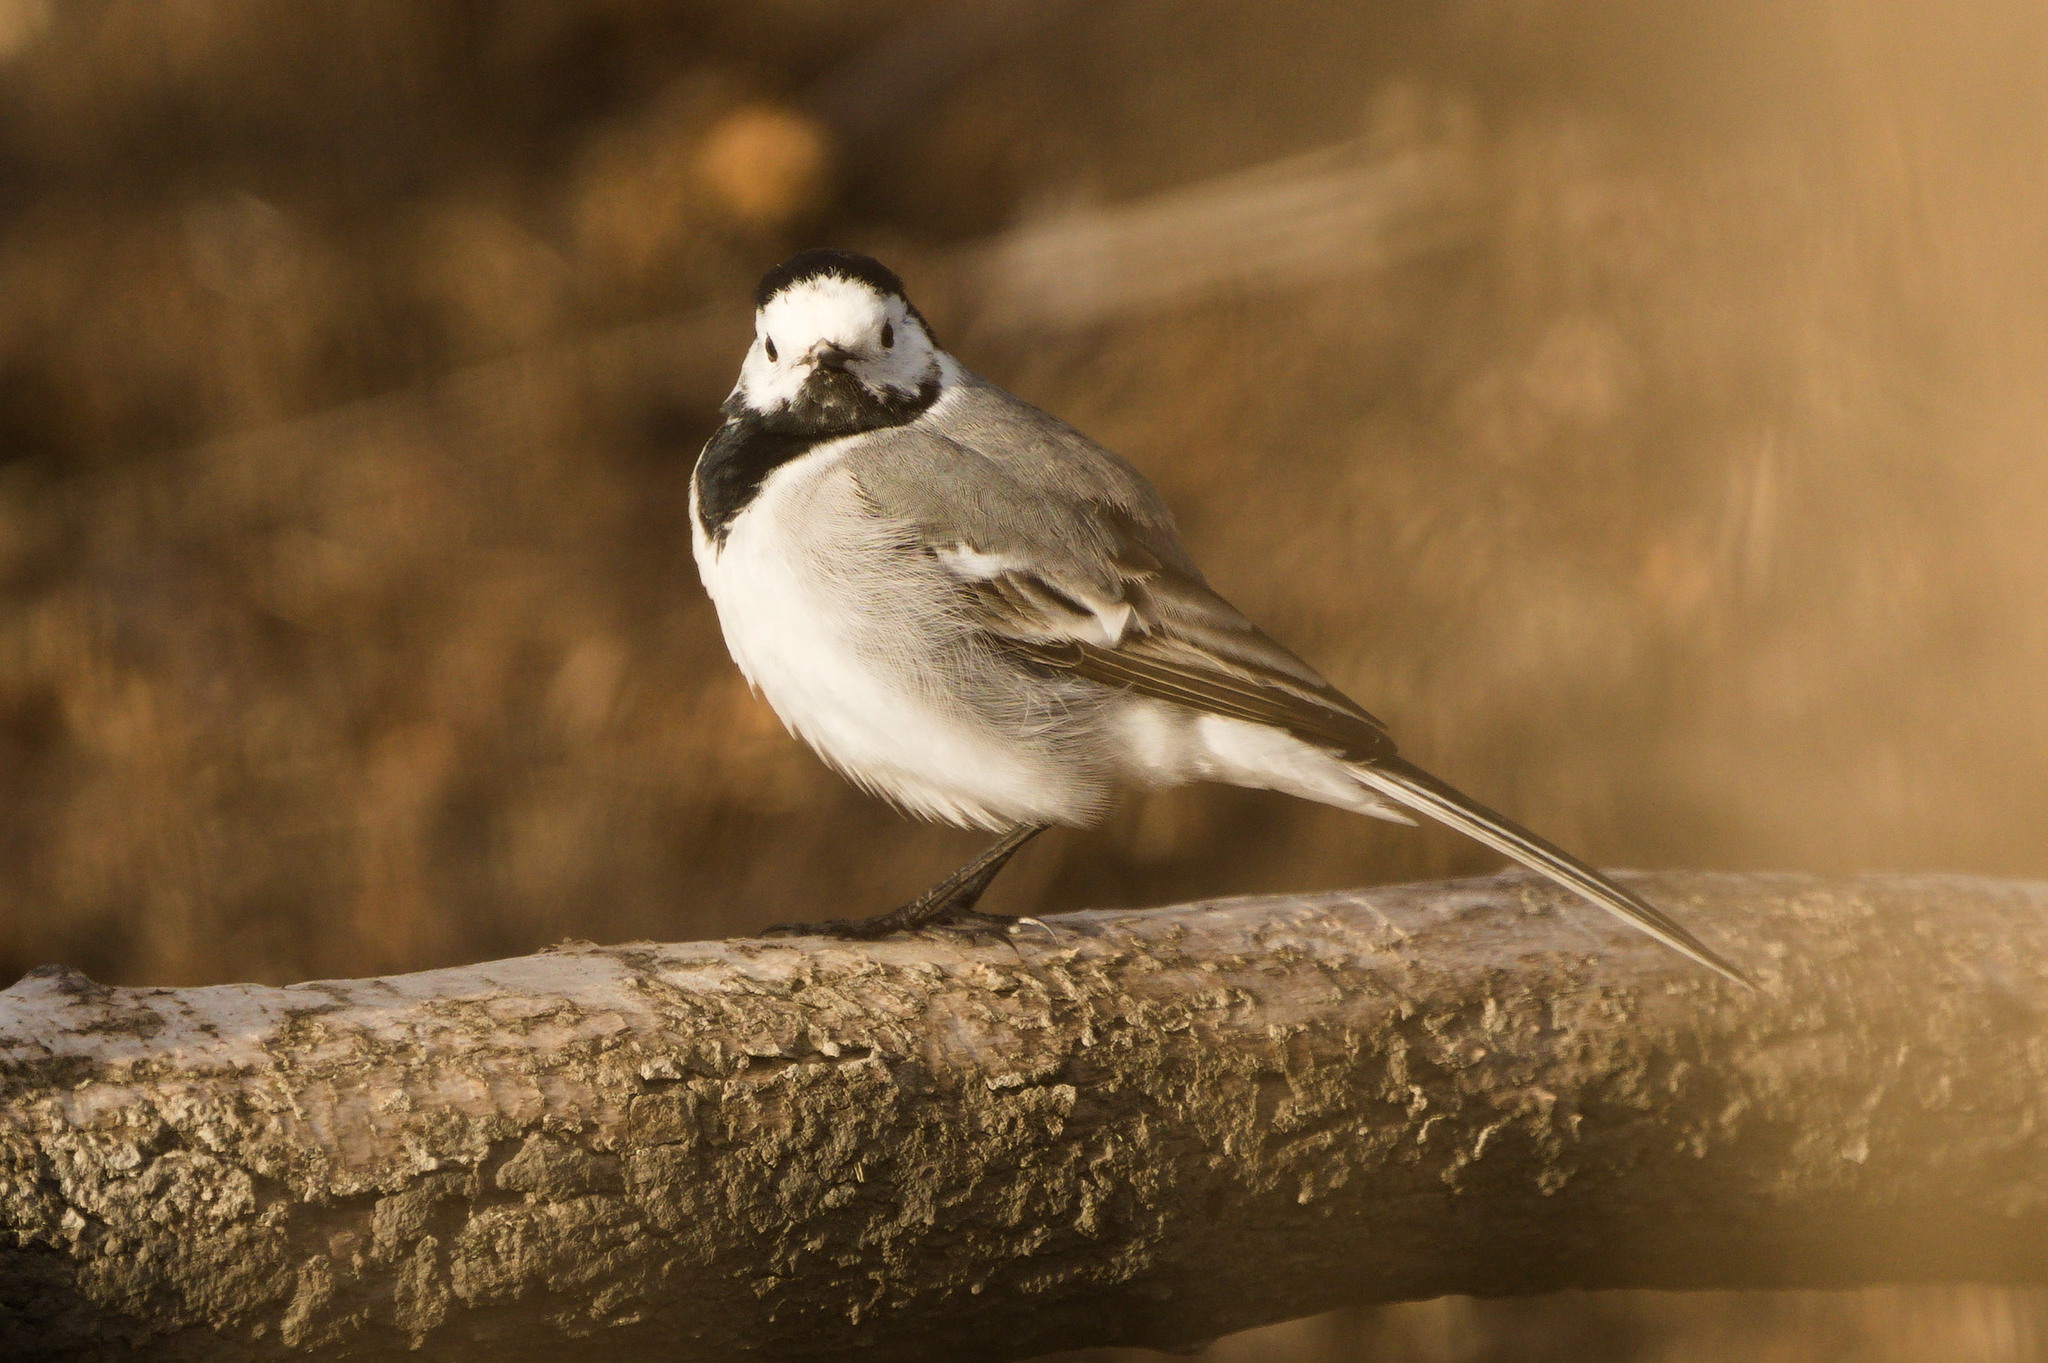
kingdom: Animalia
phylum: Chordata
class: Aves
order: Passeriformes
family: Motacillidae
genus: Motacilla
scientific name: Motacilla alba
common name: White wagtail
